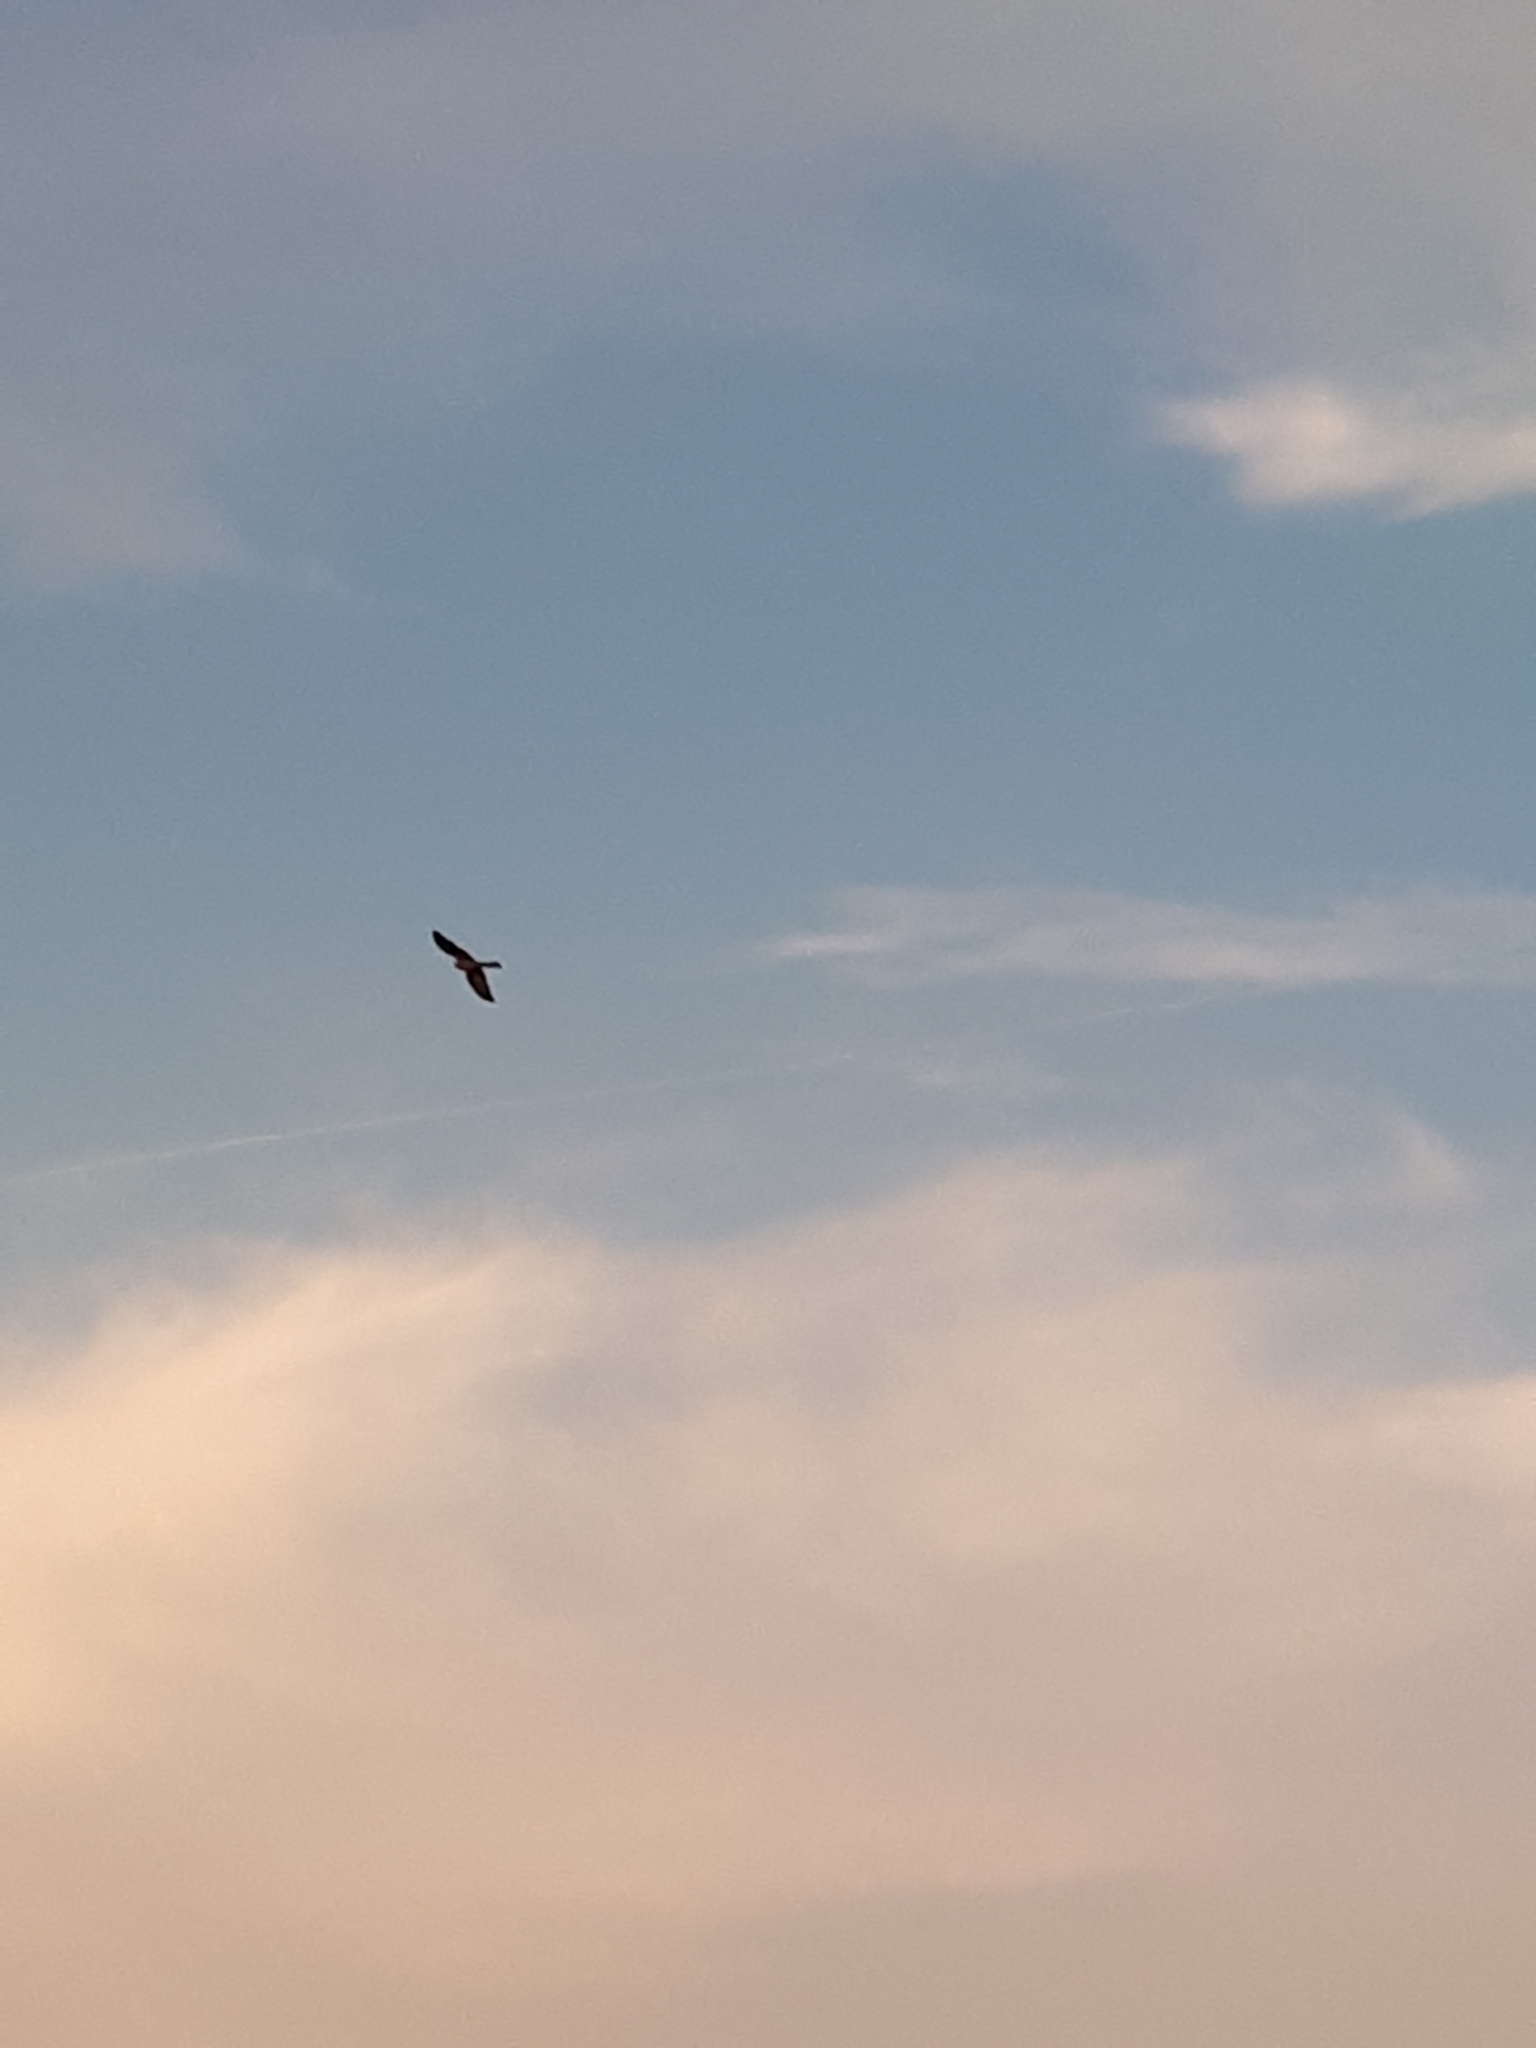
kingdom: Animalia
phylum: Chordata
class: Aves
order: Falconiformes
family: Falconidae
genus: Falco
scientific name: Falco tinnunculus
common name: Common kestrel
